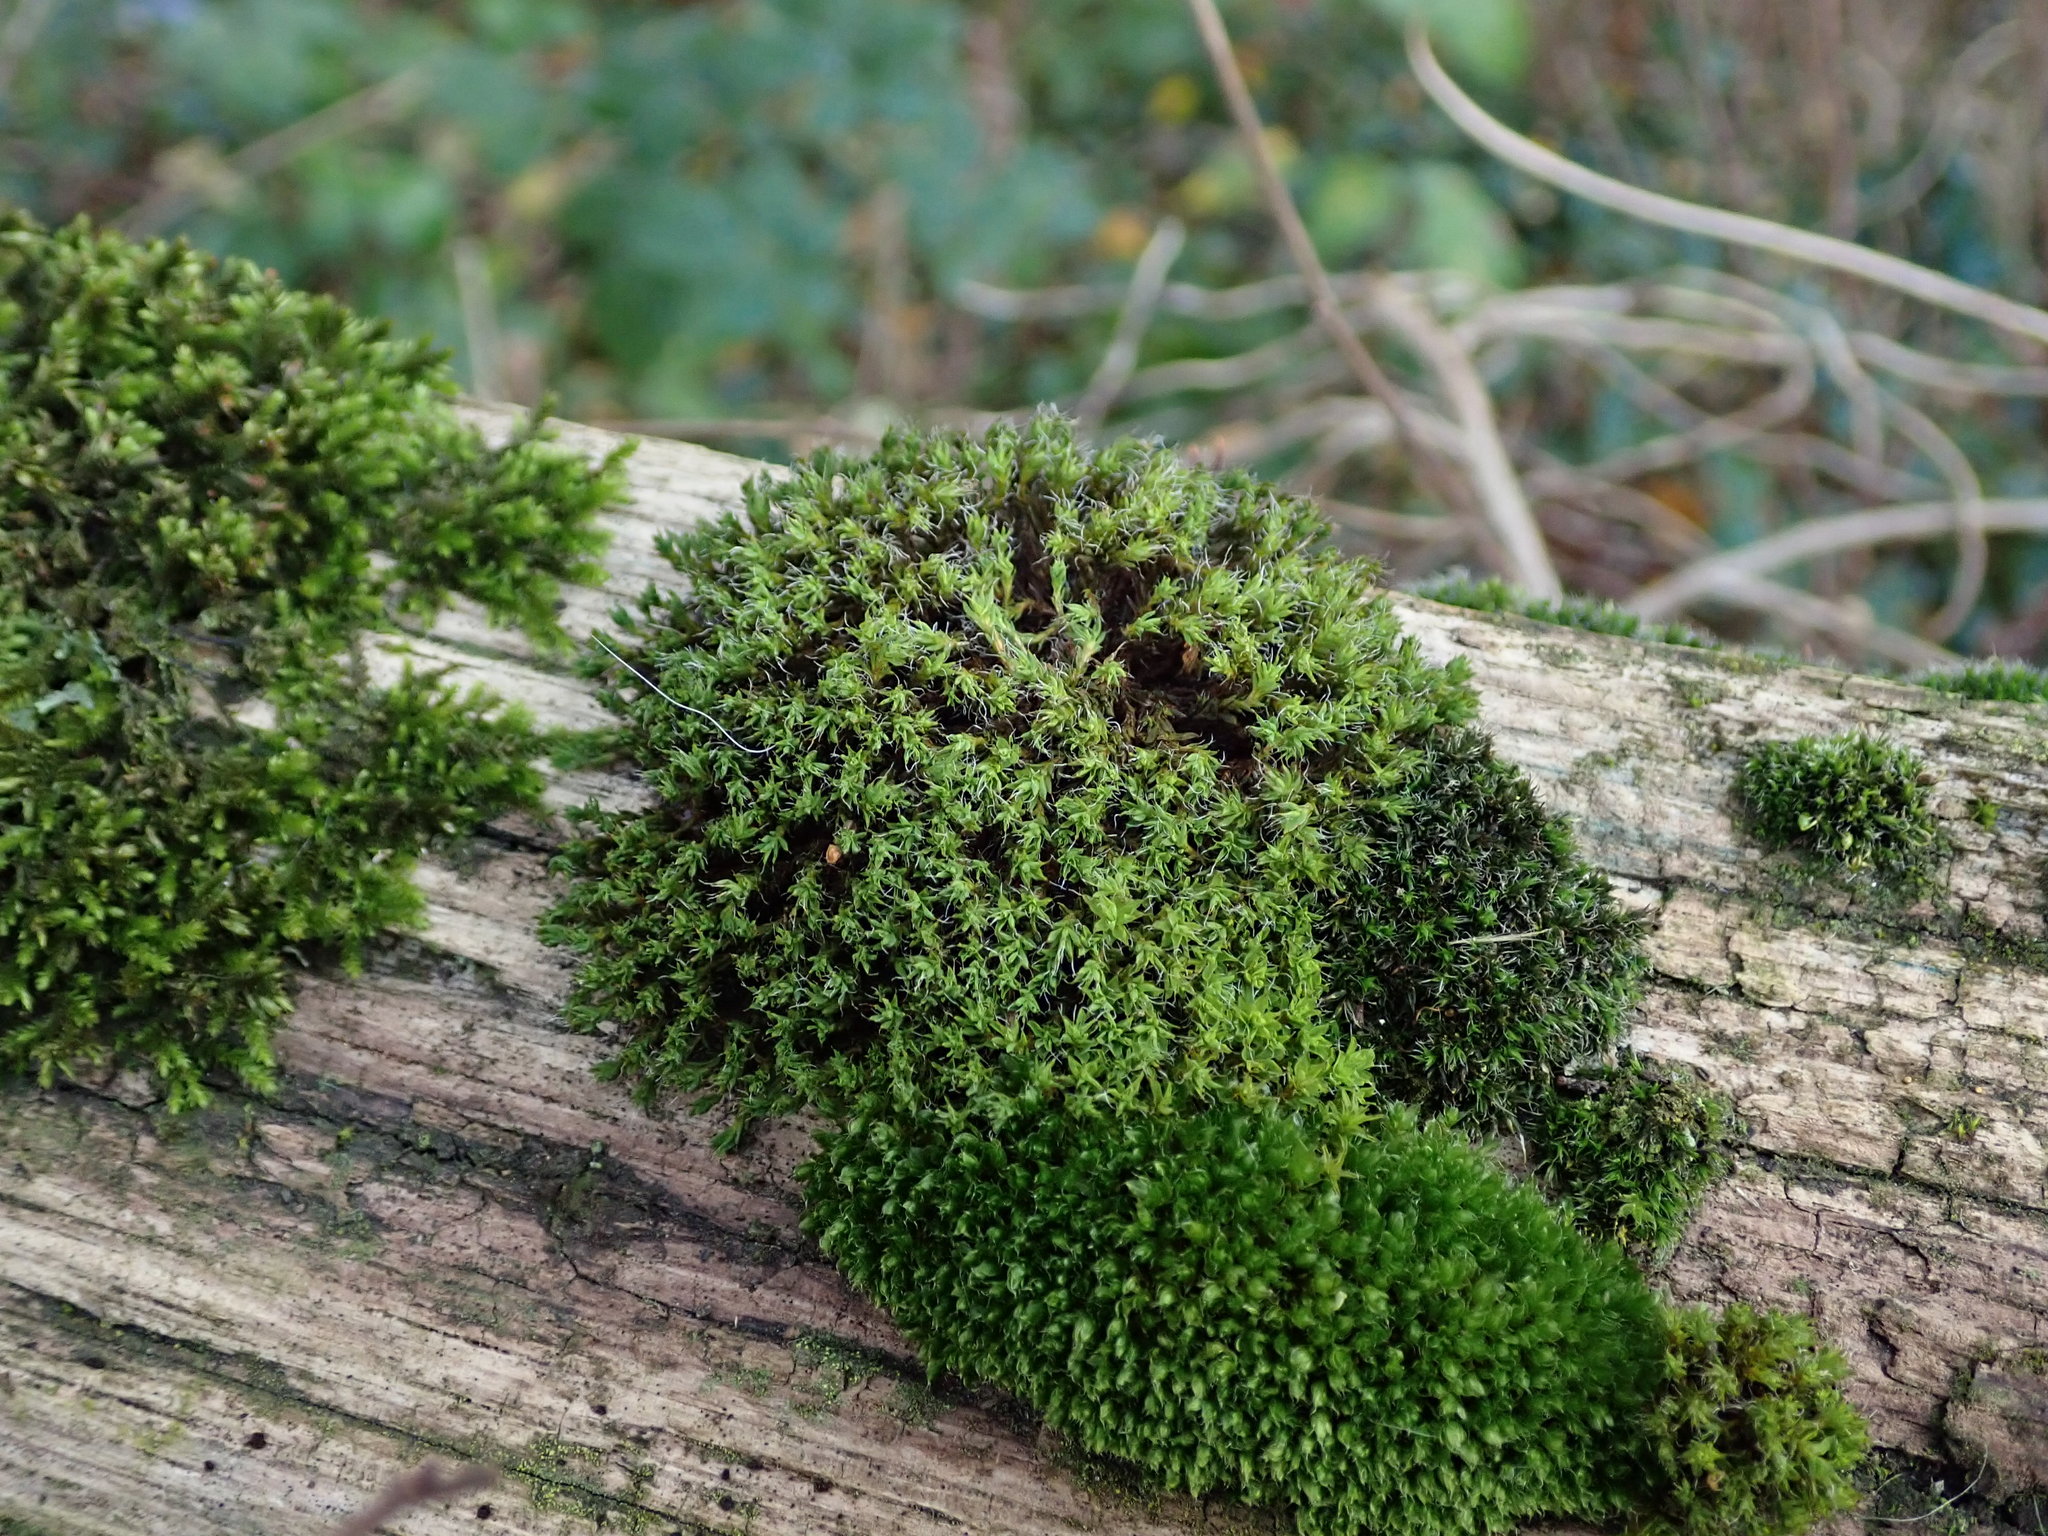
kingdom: Plantae
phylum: Bryophyta
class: Bryopsida
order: Pottiales
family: Pottiaceae
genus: Syntrichia
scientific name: Syntrichia ruralis
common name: Sidewalk screw moss
